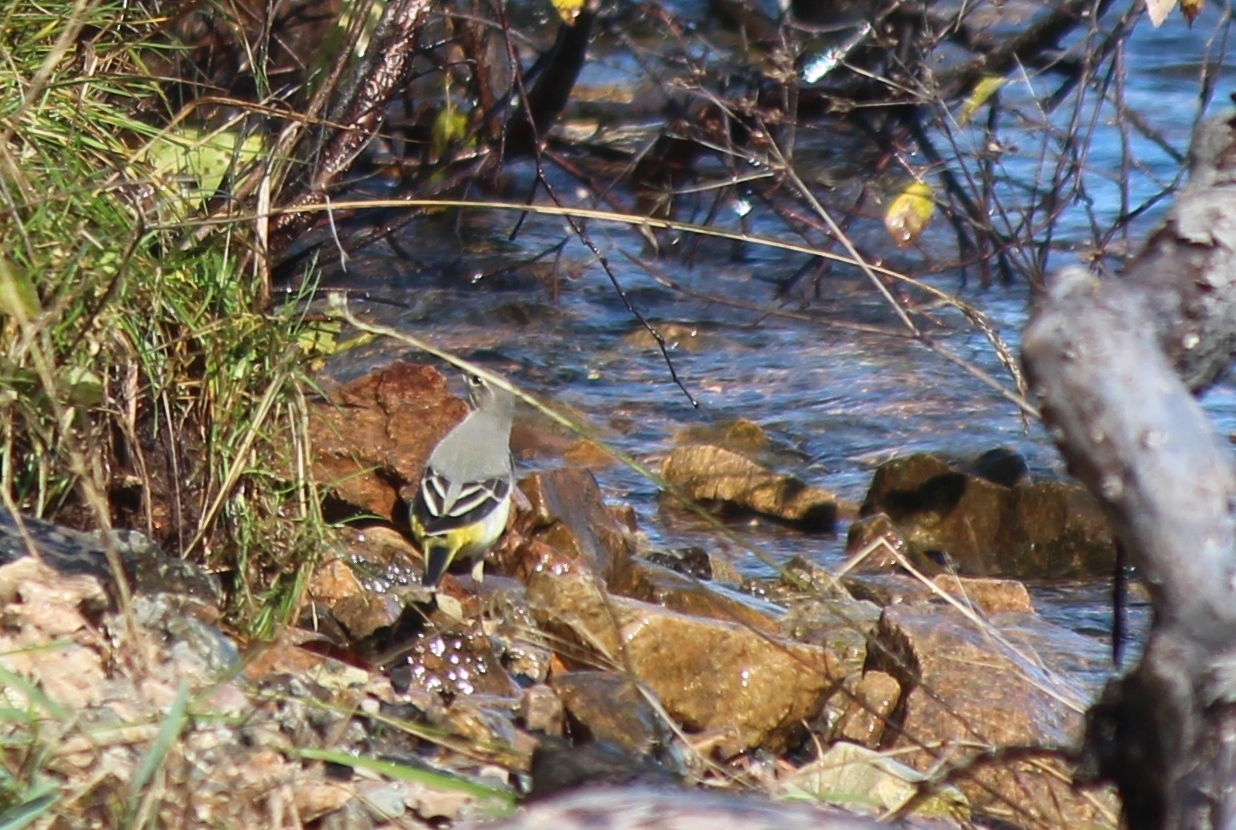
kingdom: Animalia
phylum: Chordata
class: Aves
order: Passeriformes
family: Motacillidae
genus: Motacilla
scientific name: Motacilla cinerea
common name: Grey wagtail
